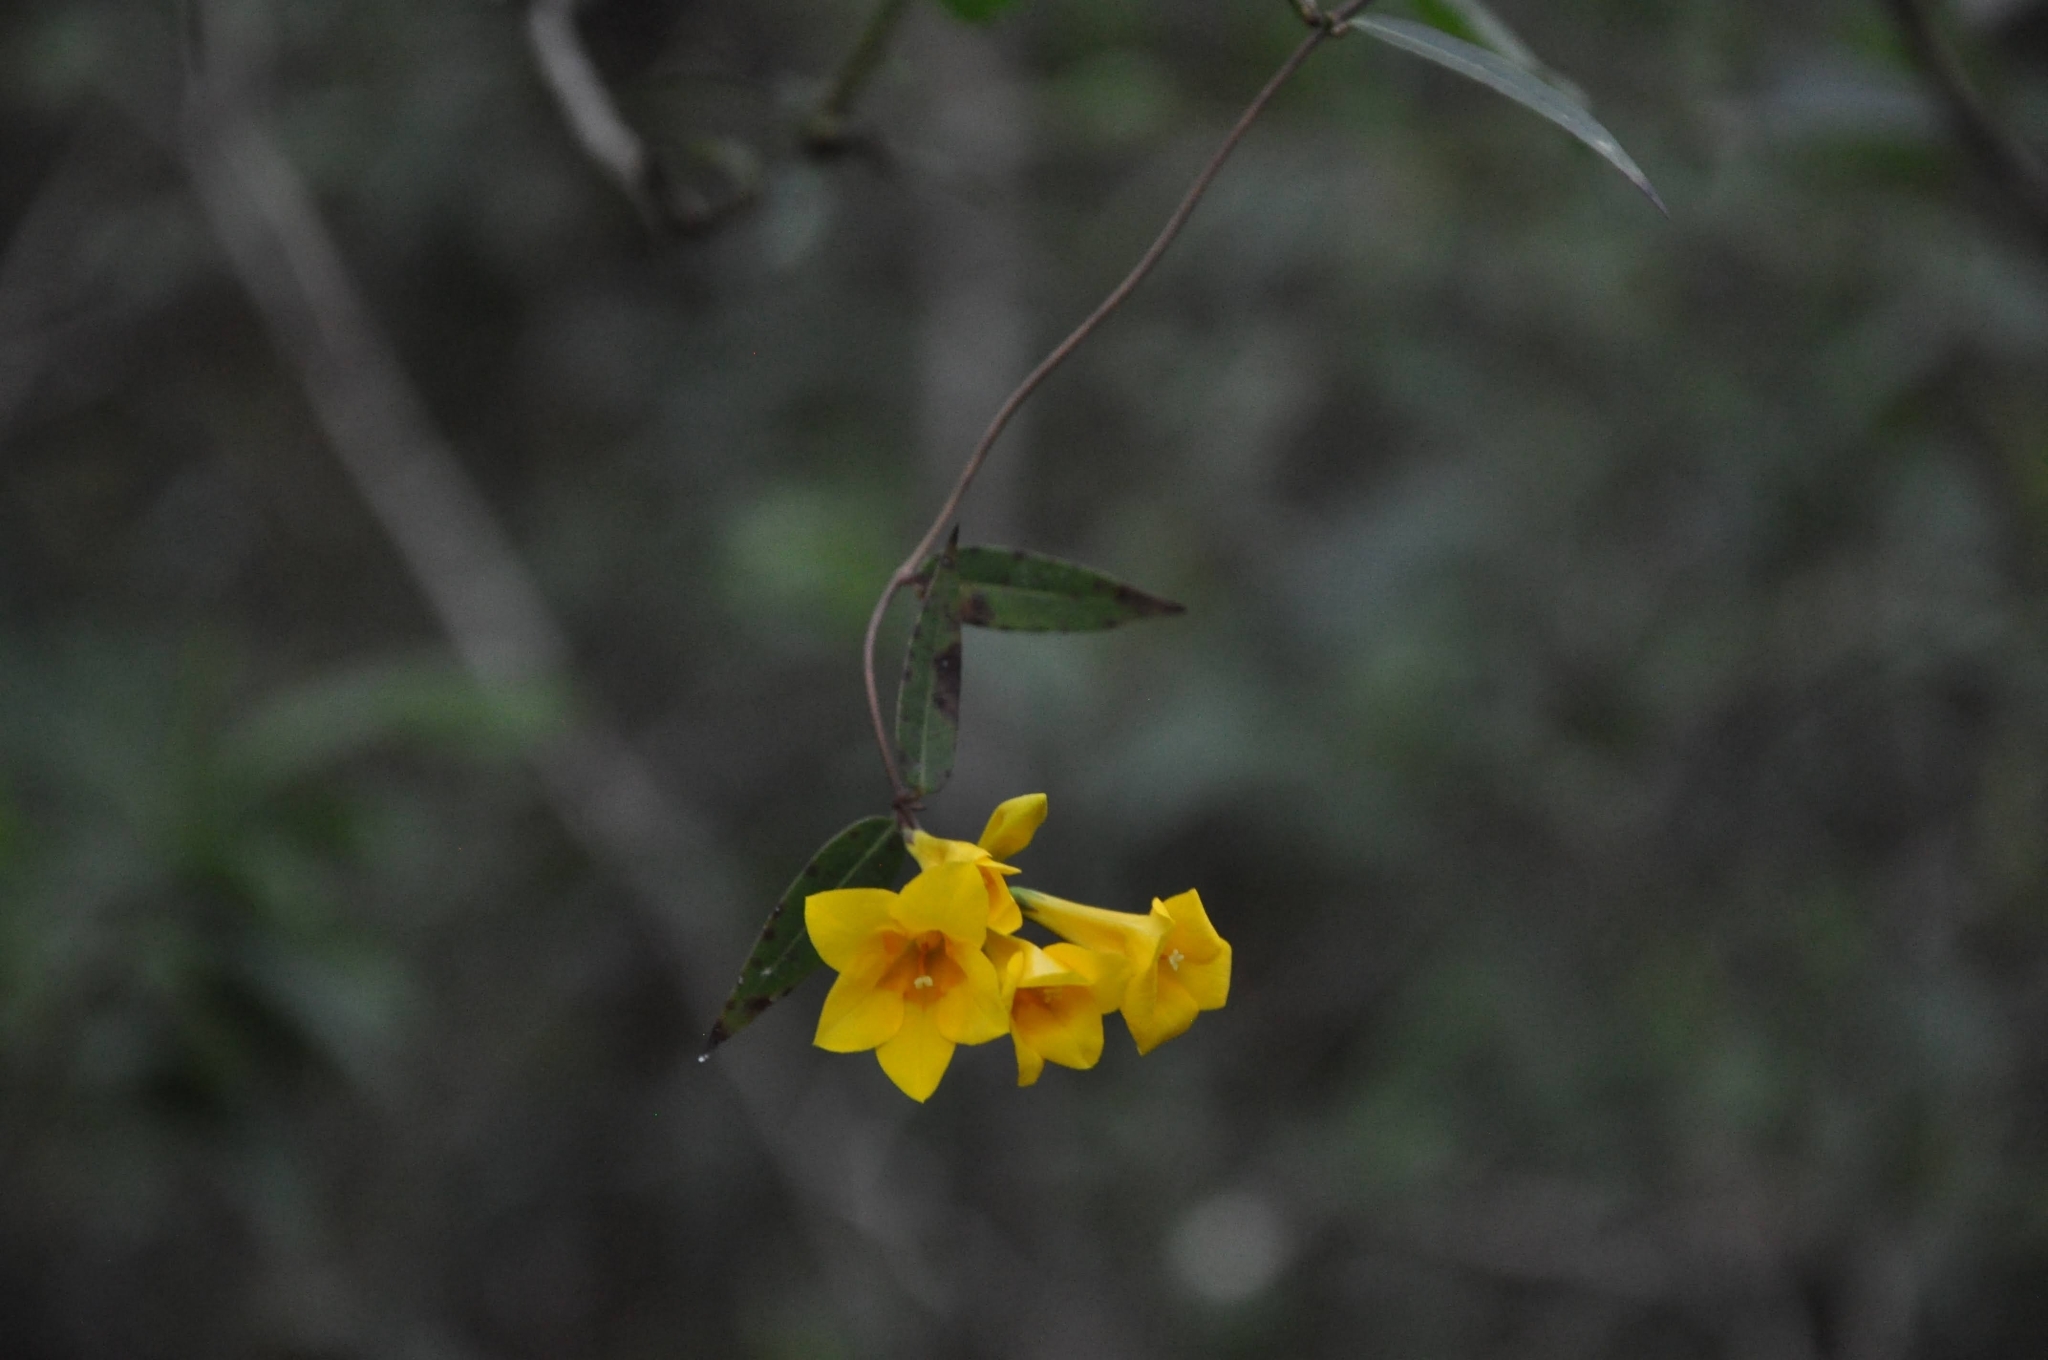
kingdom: Plantae
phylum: Tracheophyta
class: Magnoliopsida
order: Gentianales
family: Gelsemiaceae
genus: Gelsemium
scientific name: Gelsemium rankinii
